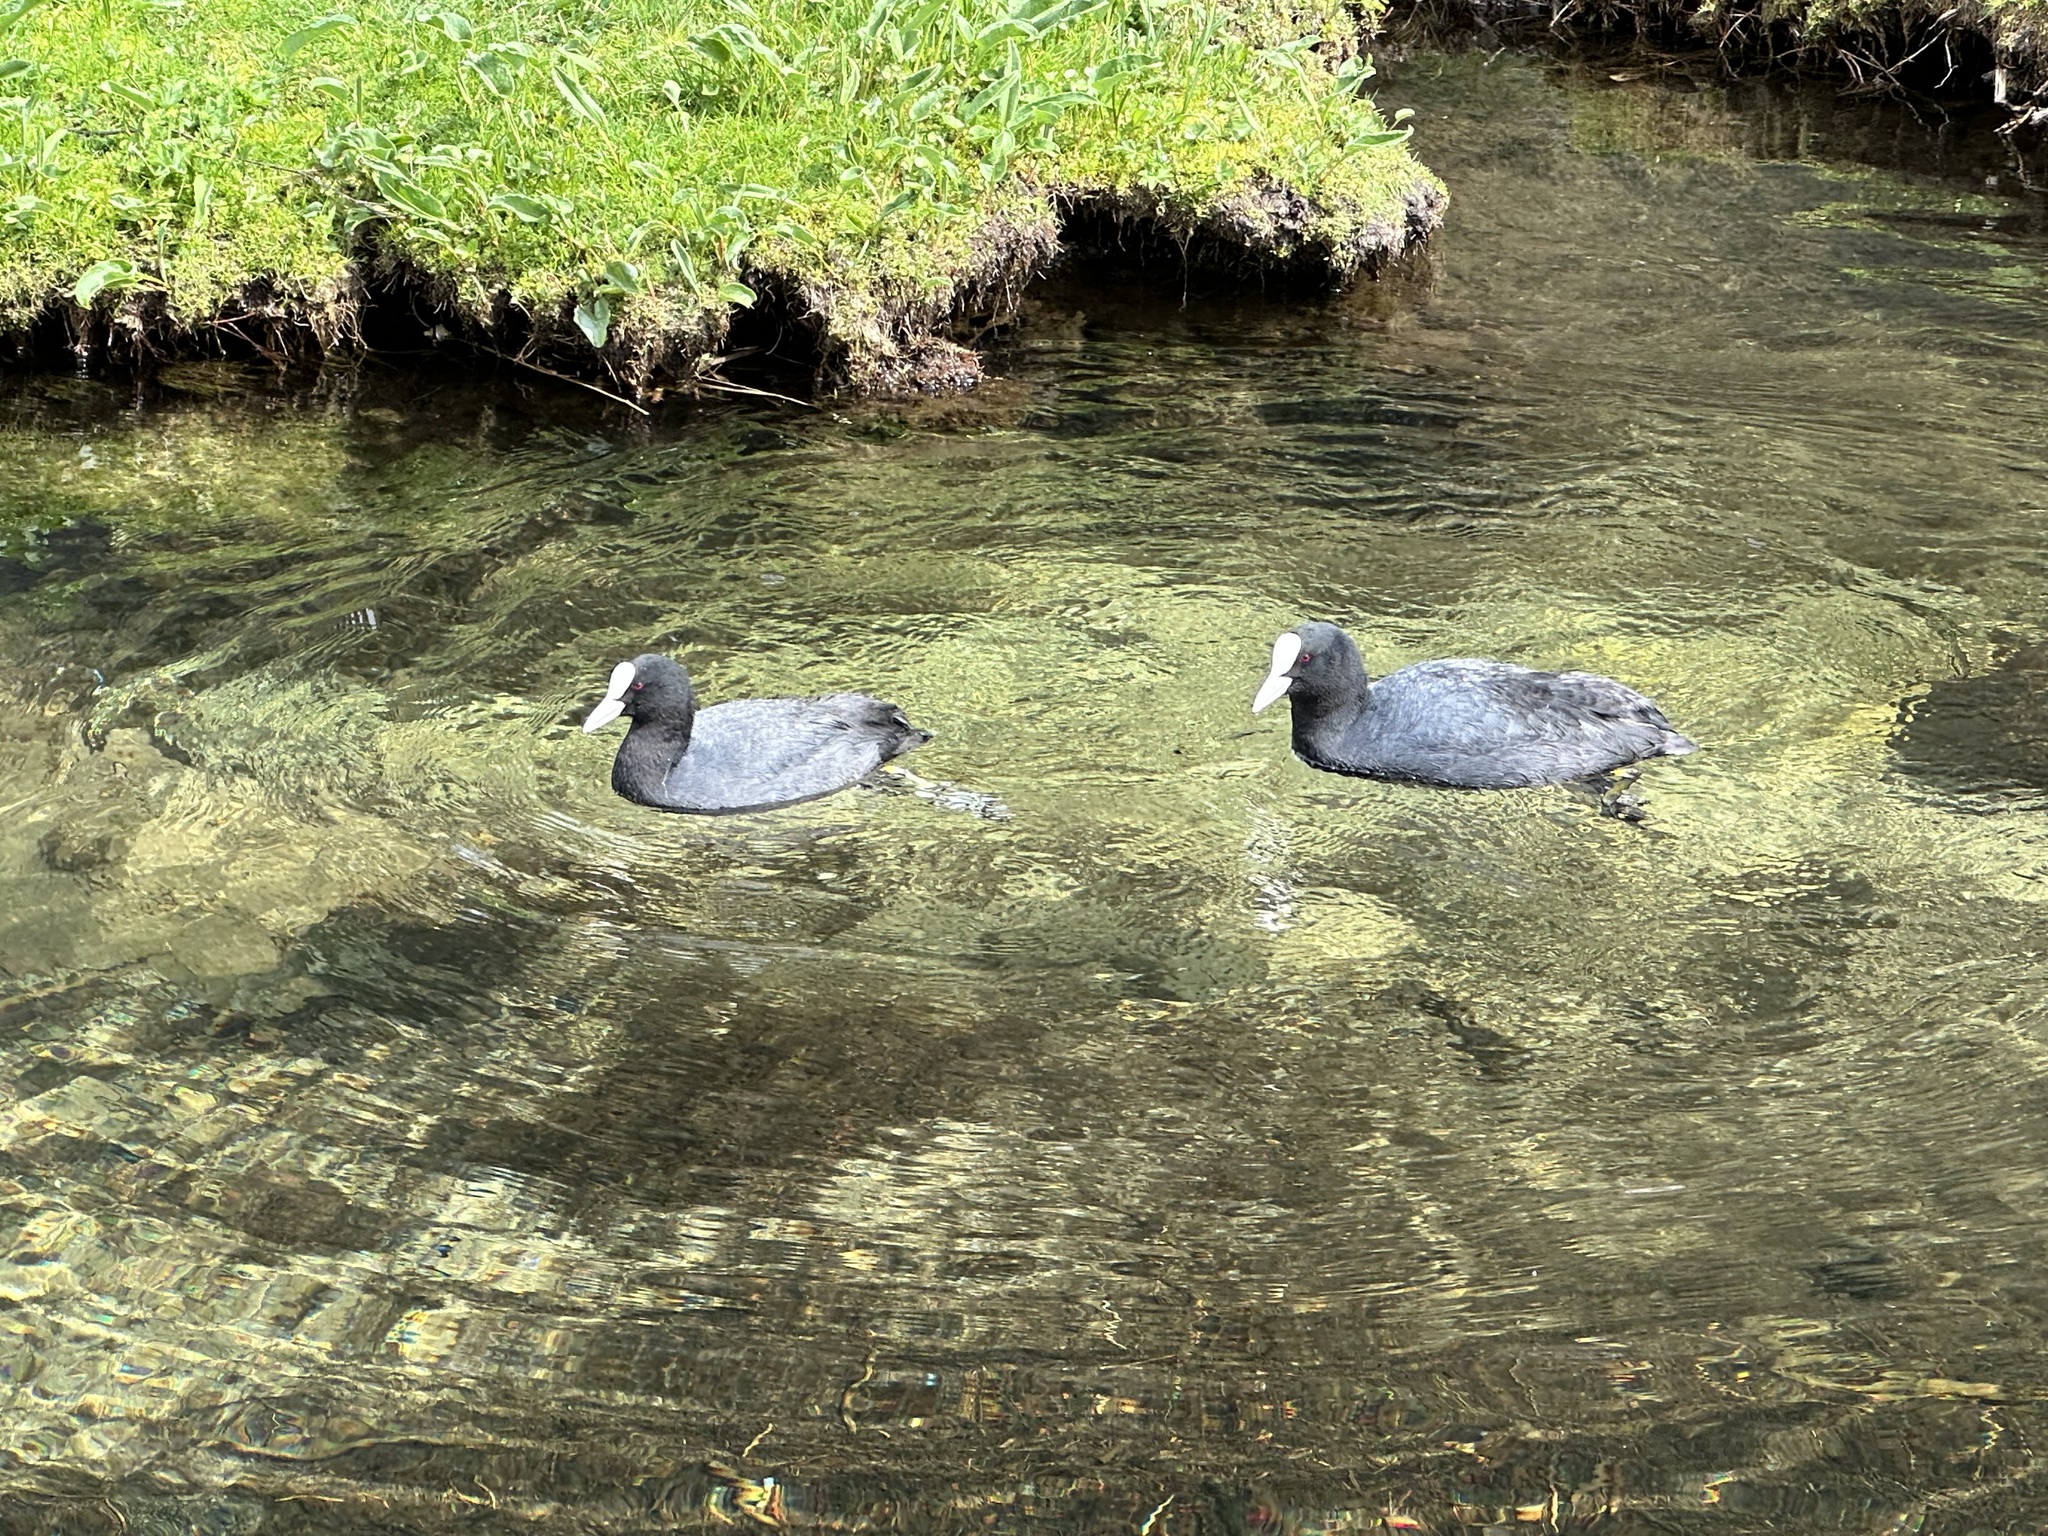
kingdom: Animalia
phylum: Chordata
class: Aves
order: Gruiformes
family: Rallidae
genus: Fulica
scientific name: Fulica atra
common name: Eurasian coot
